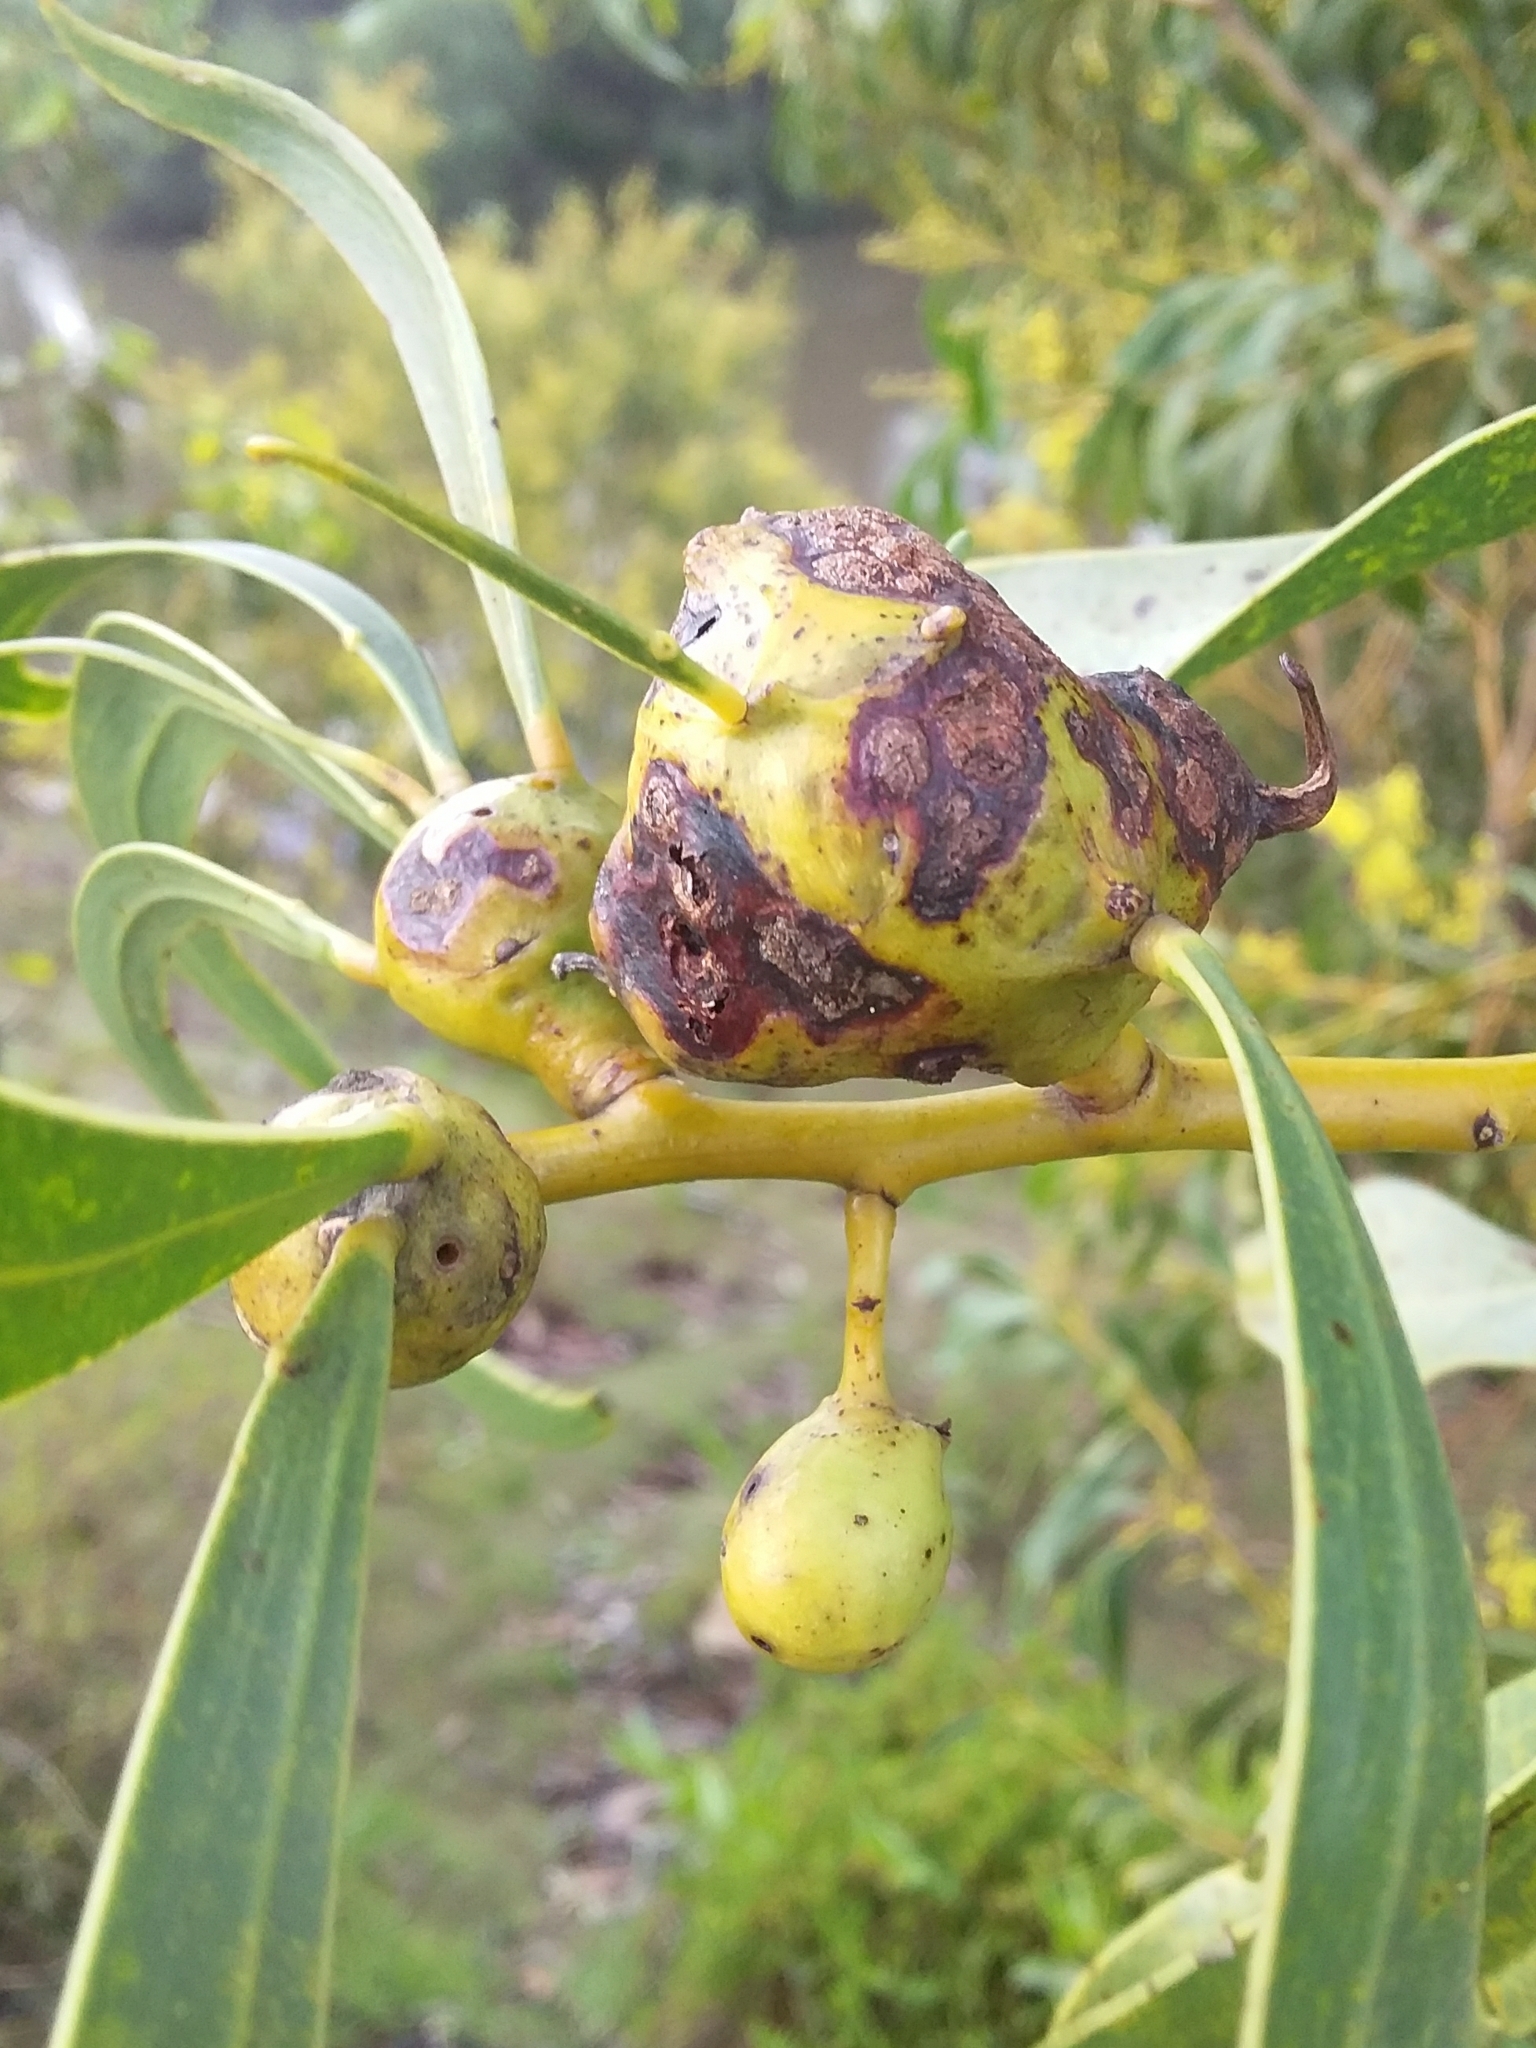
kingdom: Animalia
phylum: Arthropoda
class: Insecta
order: Hymenoptera
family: Pteromalidae
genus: Trichilogaster
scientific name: Trichilogaster signiventris
